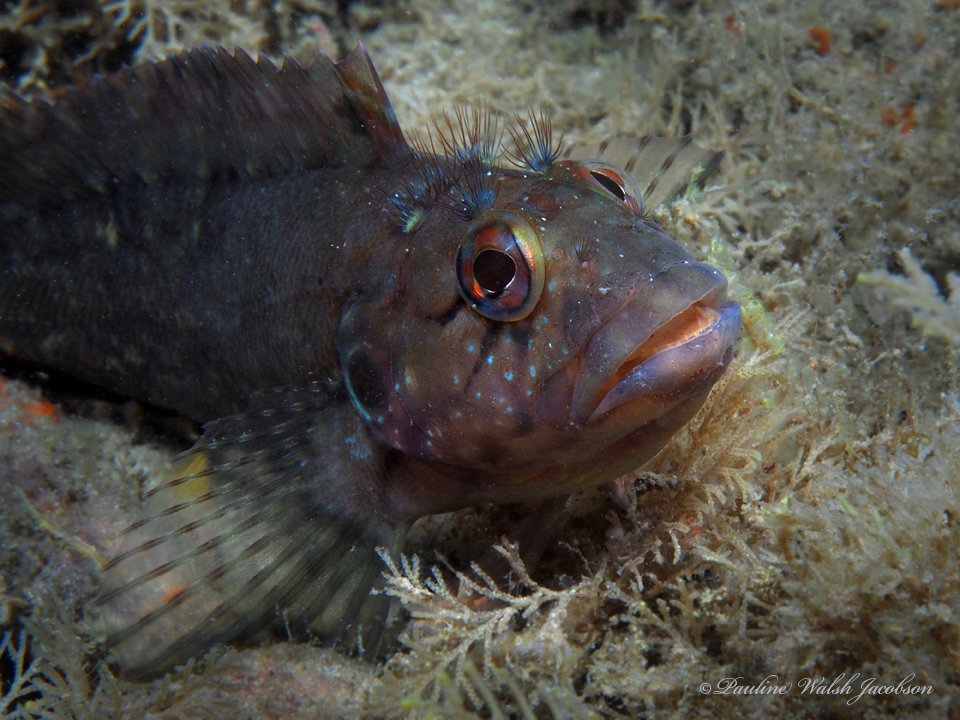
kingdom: Animalia
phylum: Chordata
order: Perciformes
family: Labrisomidae
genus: Labrisomus
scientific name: Labrisomus conditus
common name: Masquerader hairy blenny
